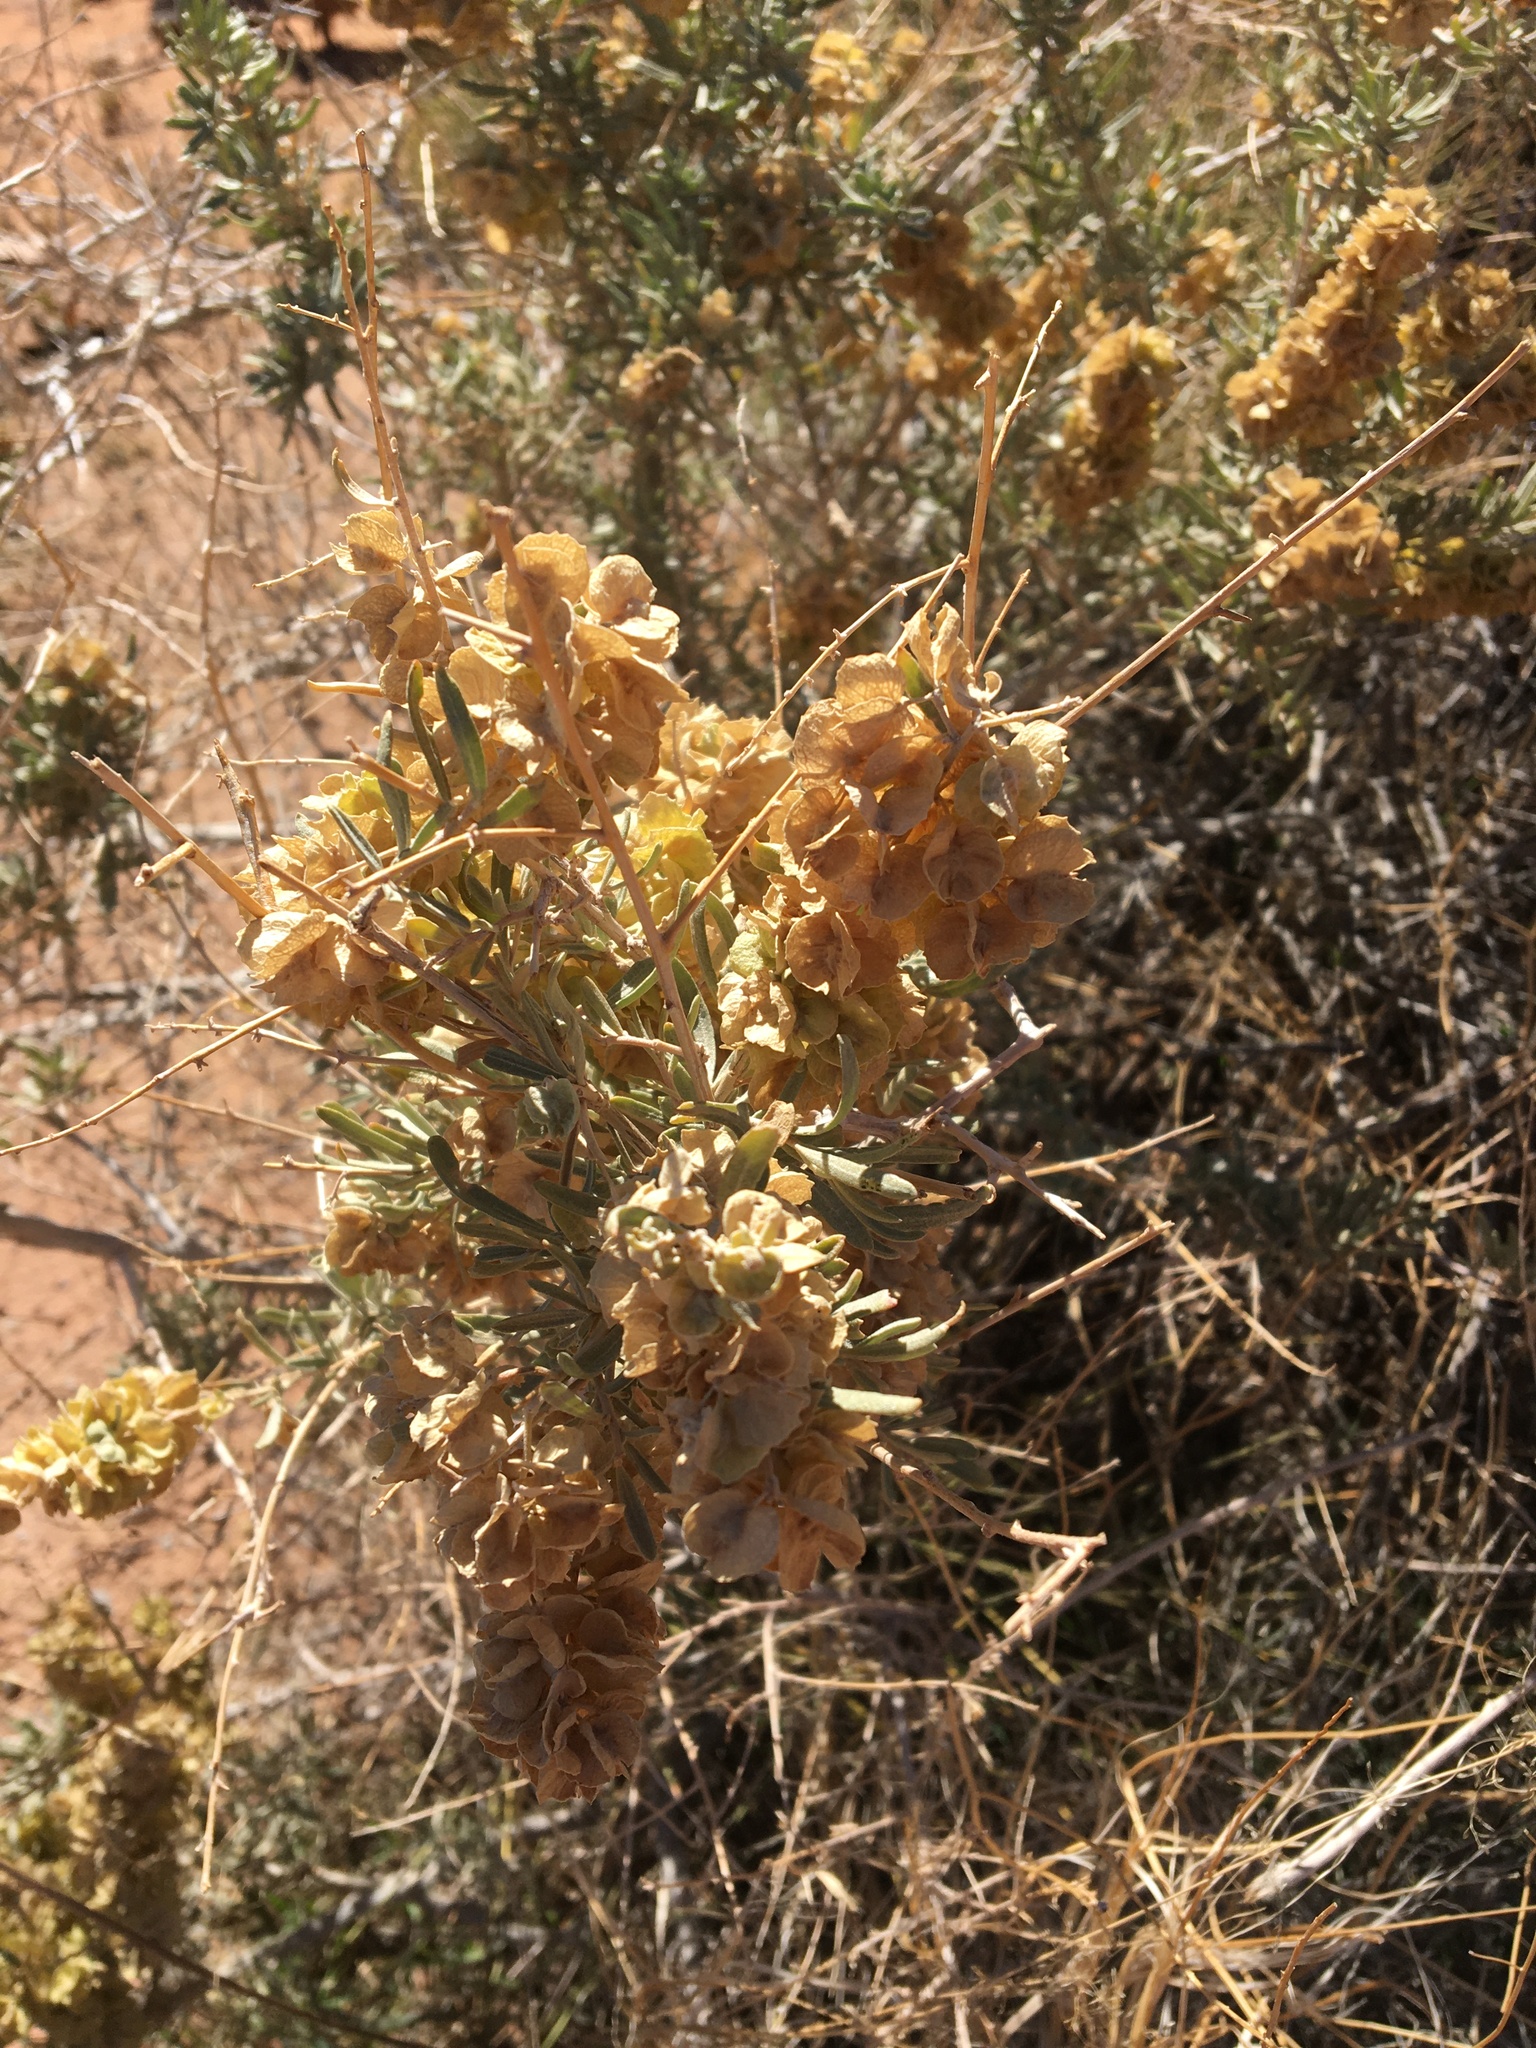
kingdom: Plantae
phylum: Tracheophyta
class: Magnoliopsida
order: Caryophyllales
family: Amaranthaceae
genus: Atriplex
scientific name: Atriplex canescens
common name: Four-wing saltbush
